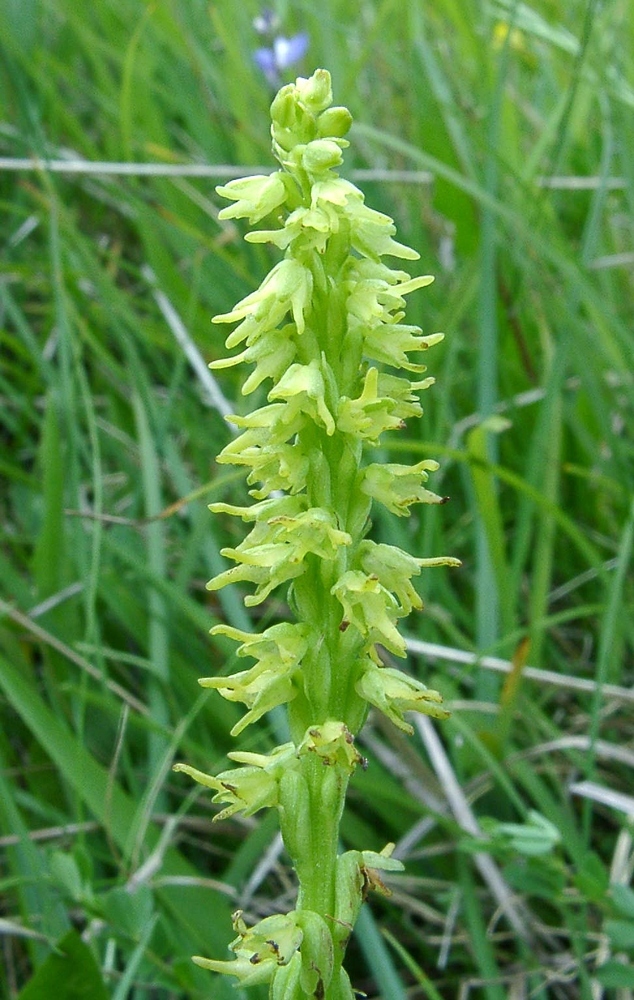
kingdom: Plantae
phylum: Tracheophyta
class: Liliopsida
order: Asparagales
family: Orchidaceae
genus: Herminium
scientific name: Herminium monorchis
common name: Musk orchid
